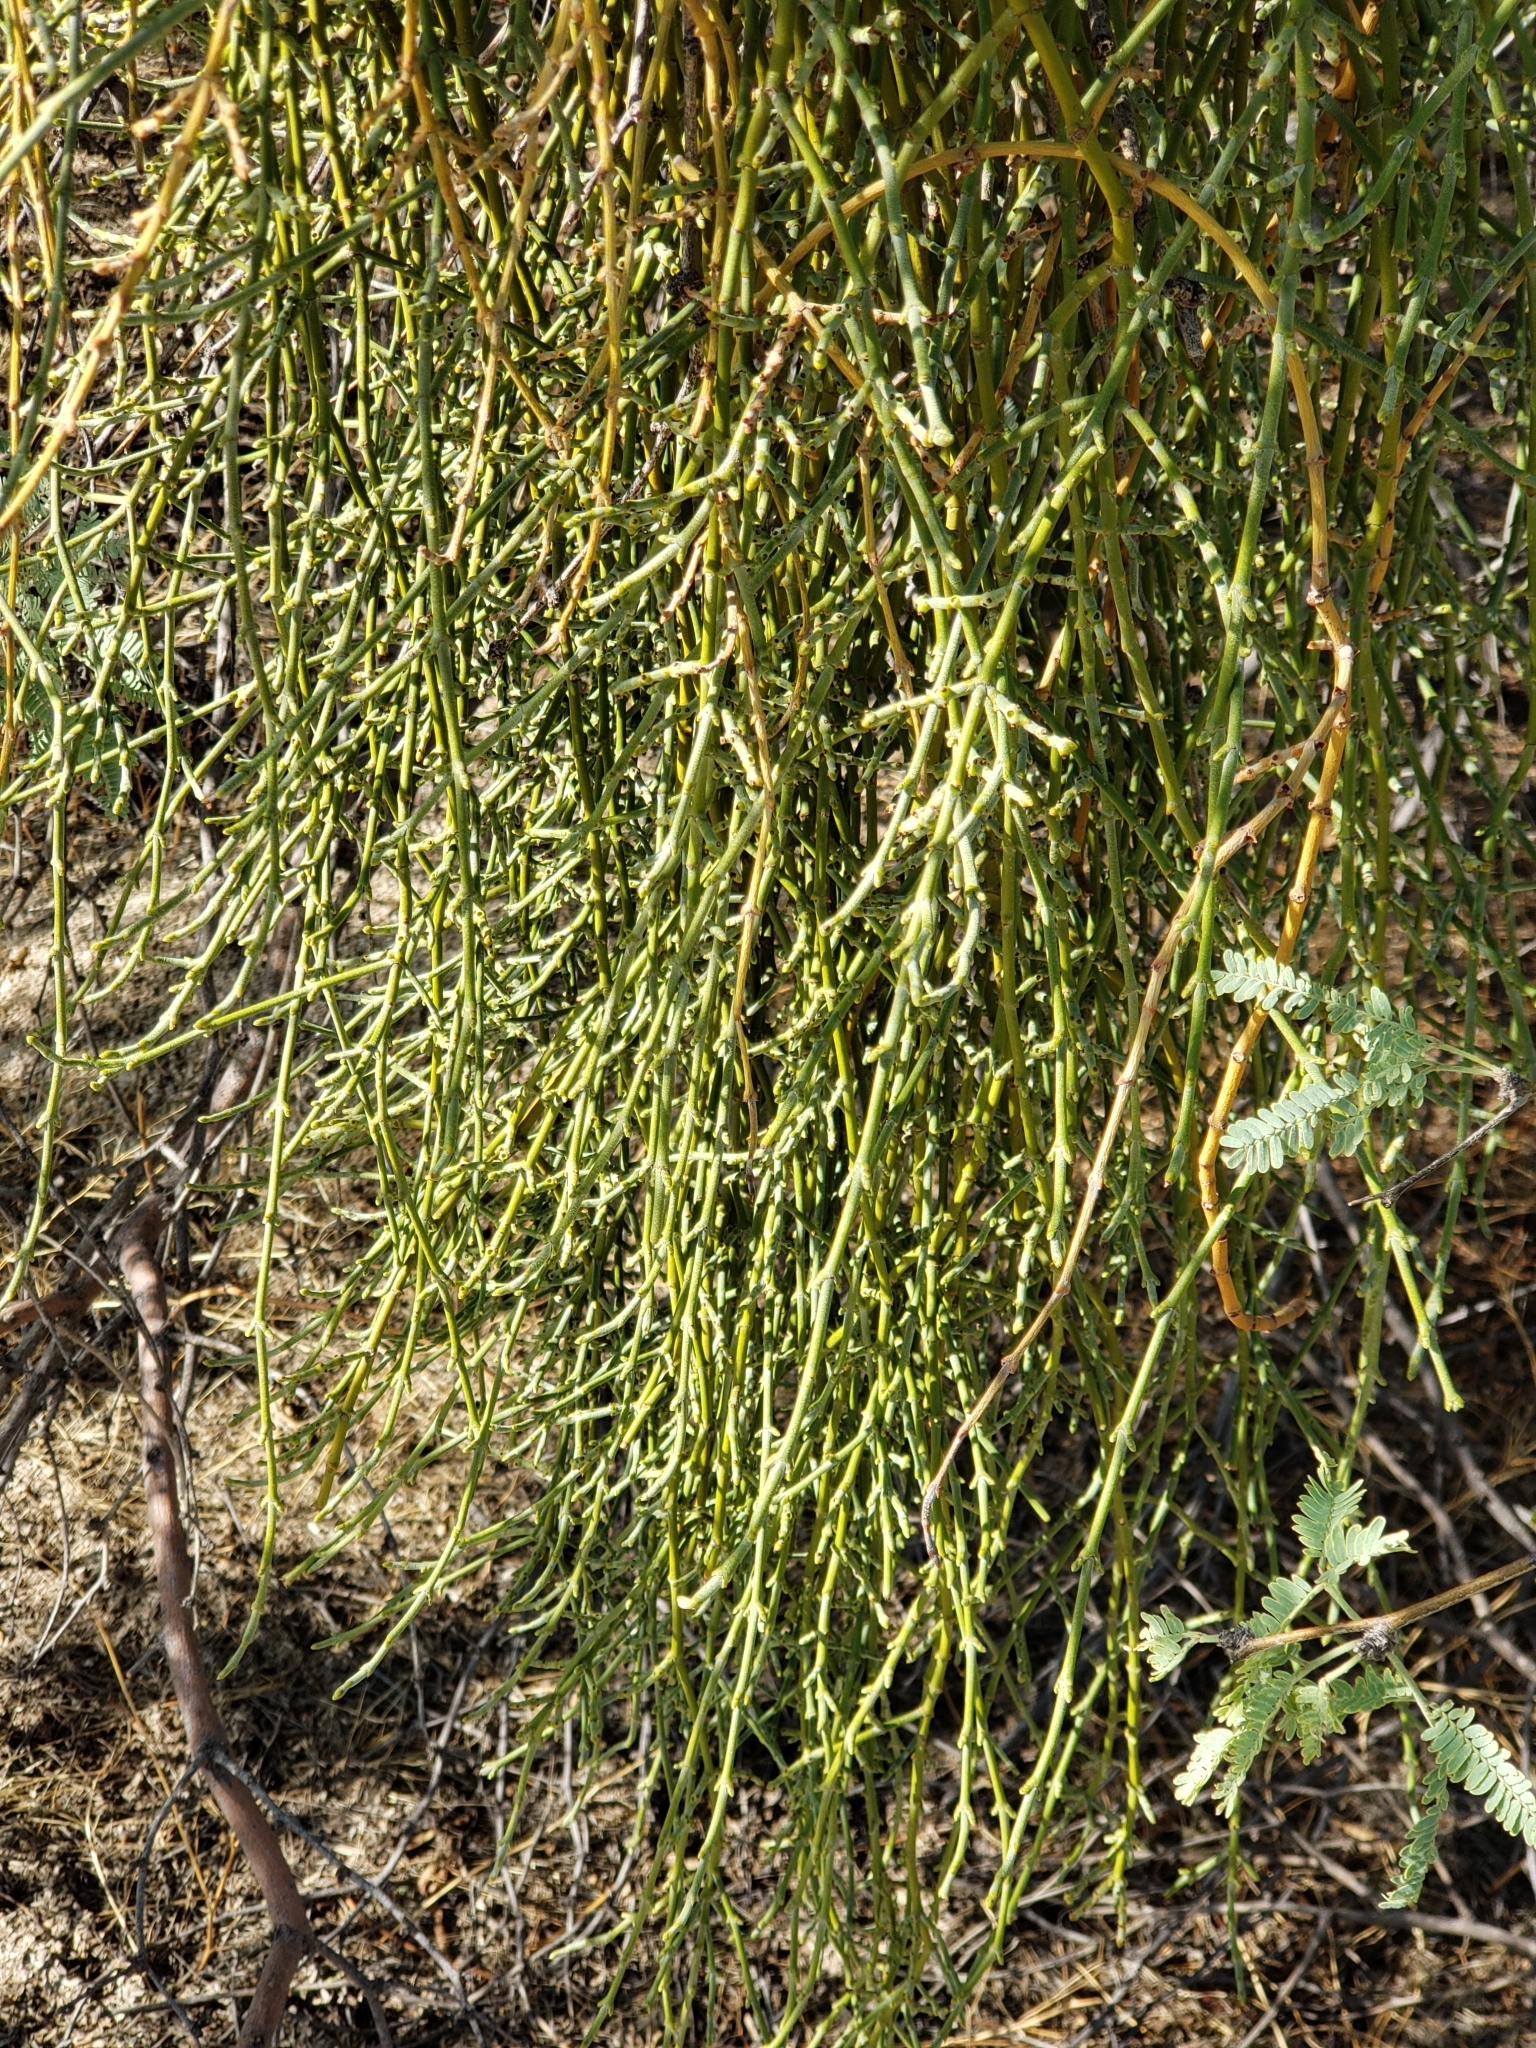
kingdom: Plantae
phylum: Tracheophyta
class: Magnoliopsida
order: Santalales
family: Viscaceae
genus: Phoradendron
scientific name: Phoradendron californicum
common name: Acacia mistletoe
